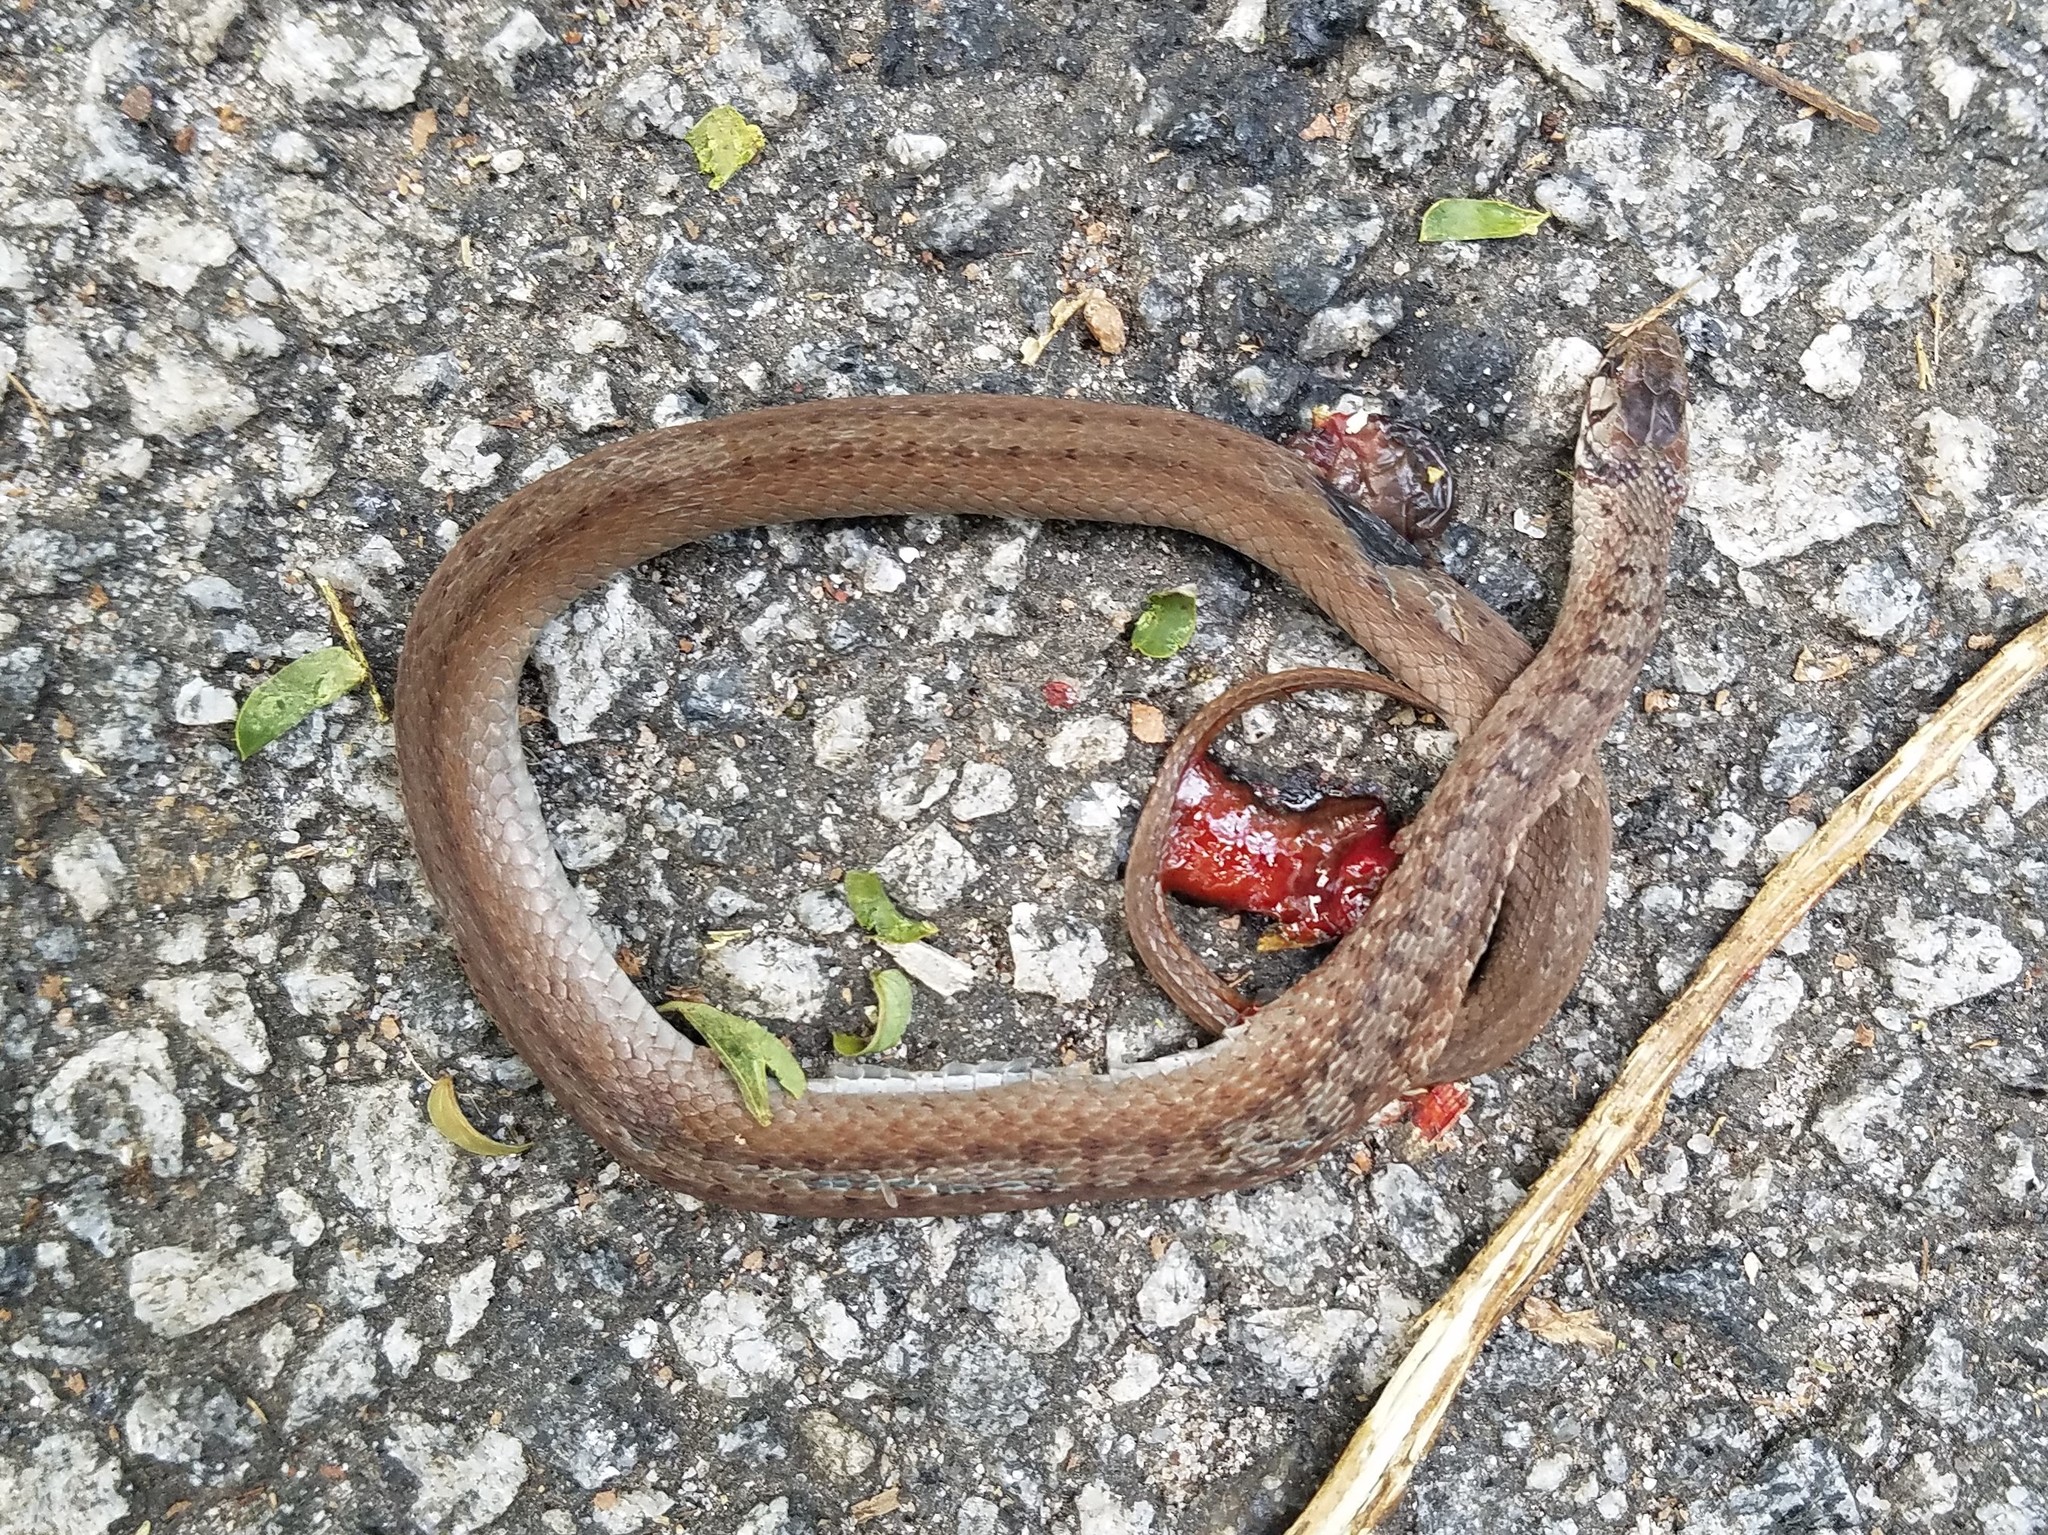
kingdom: Animalia
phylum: Chordata
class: Squamata
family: Colubridae
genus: Storeria
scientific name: Storeria dekayi
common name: (dekay’s) brown snake
